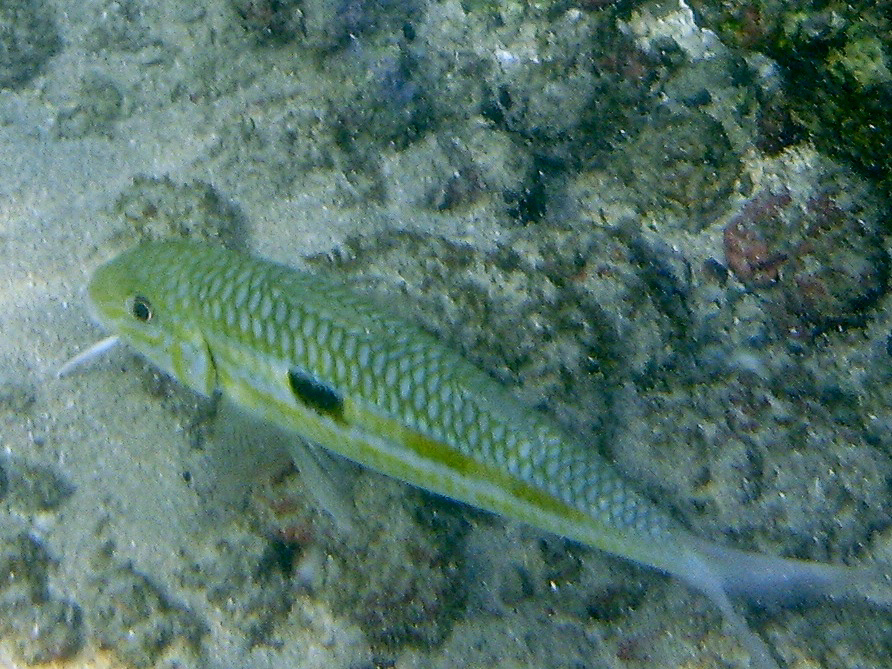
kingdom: Animalia
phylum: Chordata
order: Perciformes
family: Mullidae
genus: Mulloidichthys
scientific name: Mulloidichthys flavolineatus
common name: Yellowstripe goatfish
